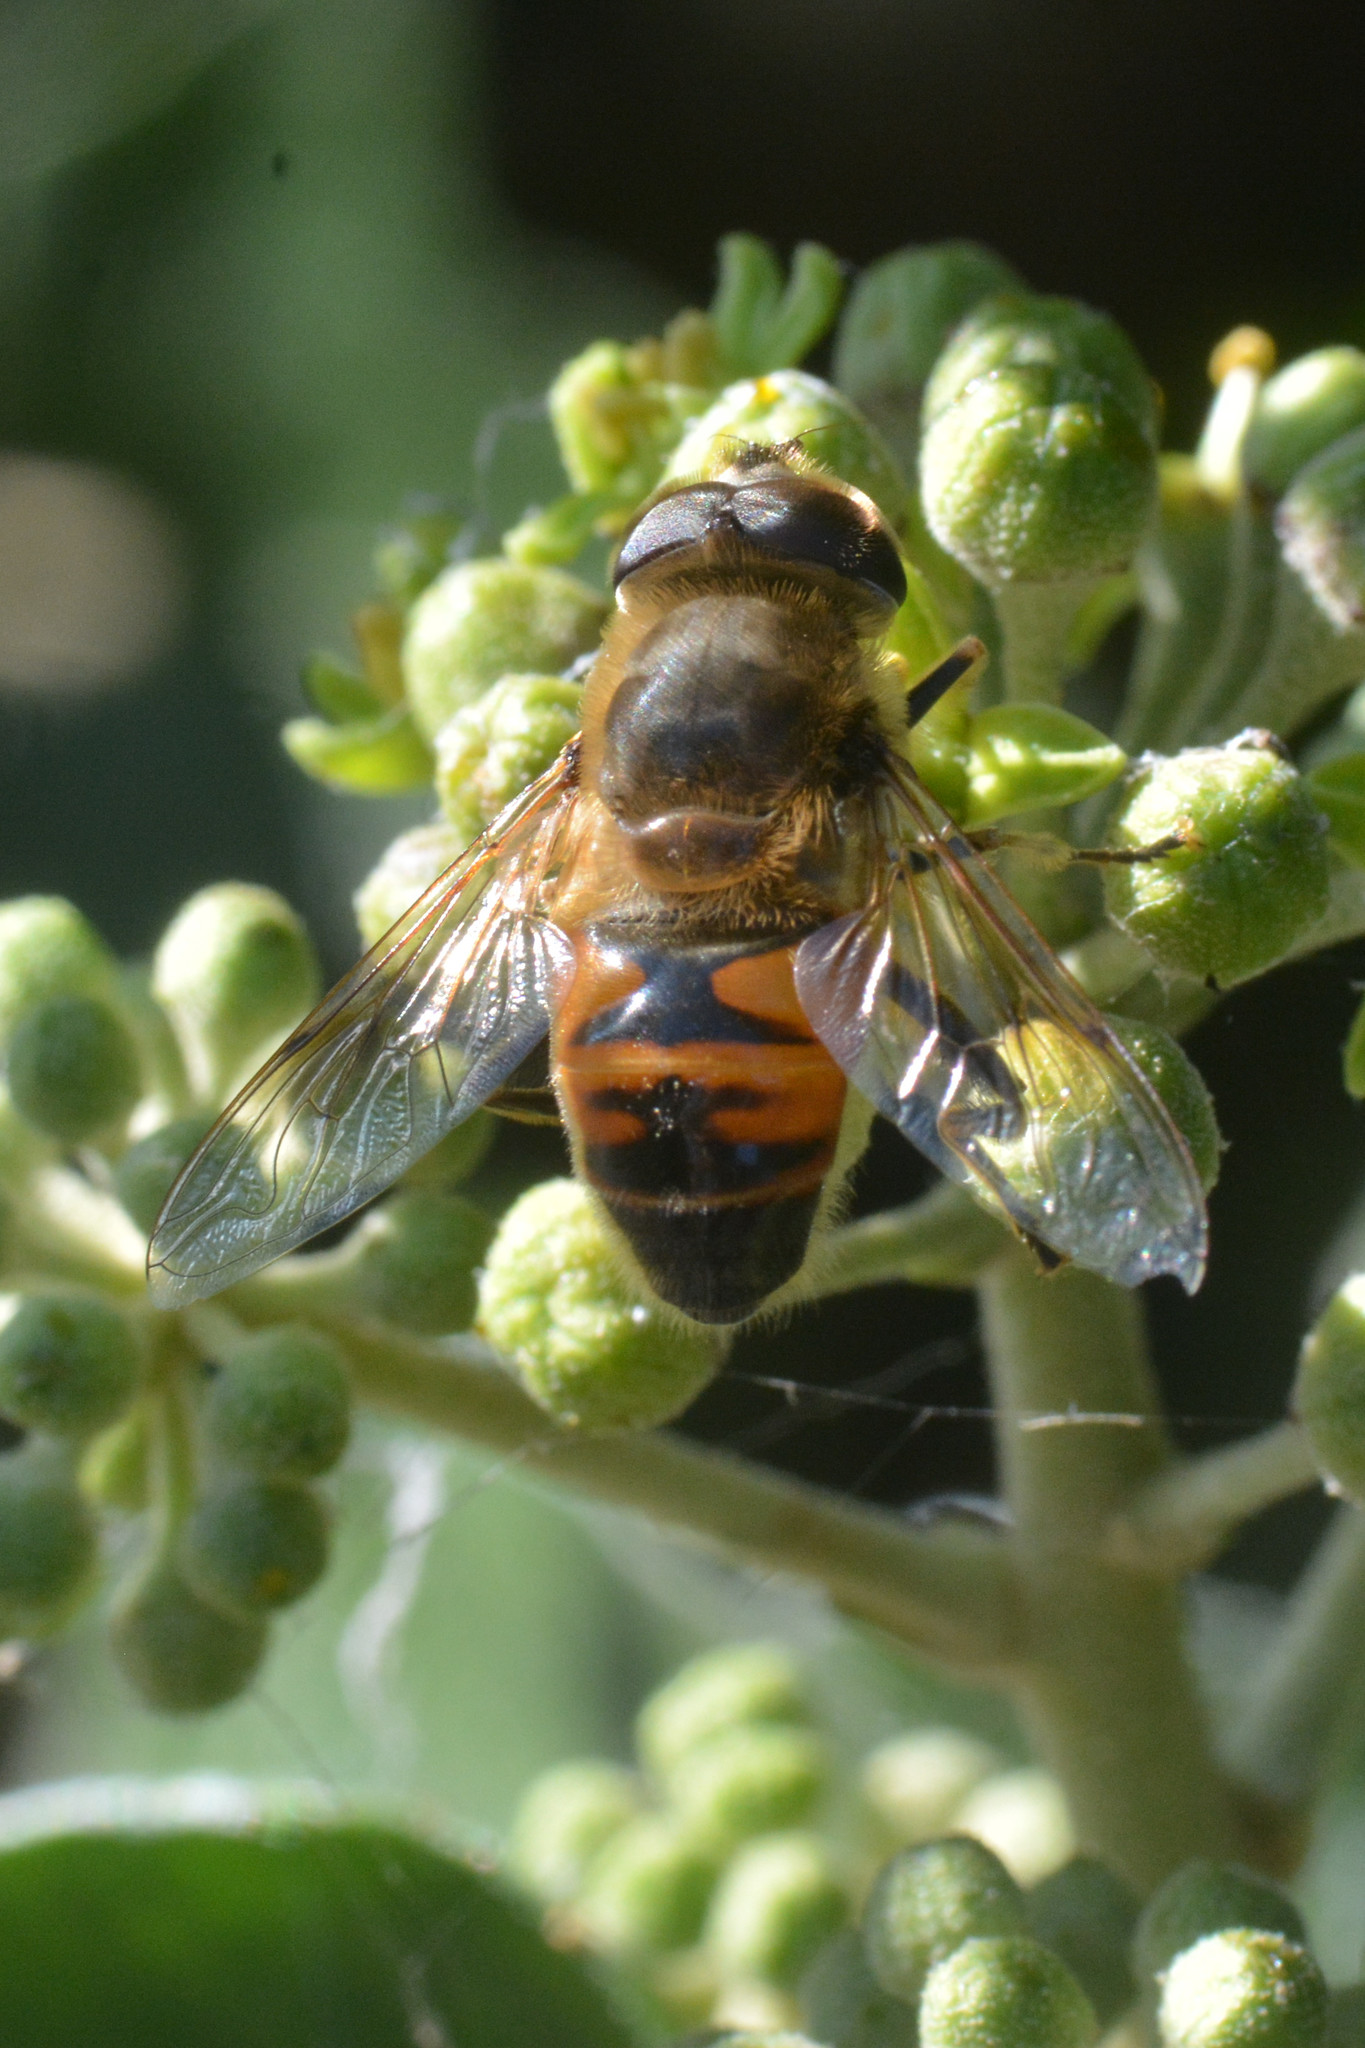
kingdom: Animalia
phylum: Arthropoda
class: Insecta
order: Diptera
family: Syrphidae
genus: Eristalis
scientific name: Eristalis tenax
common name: Drone fly
